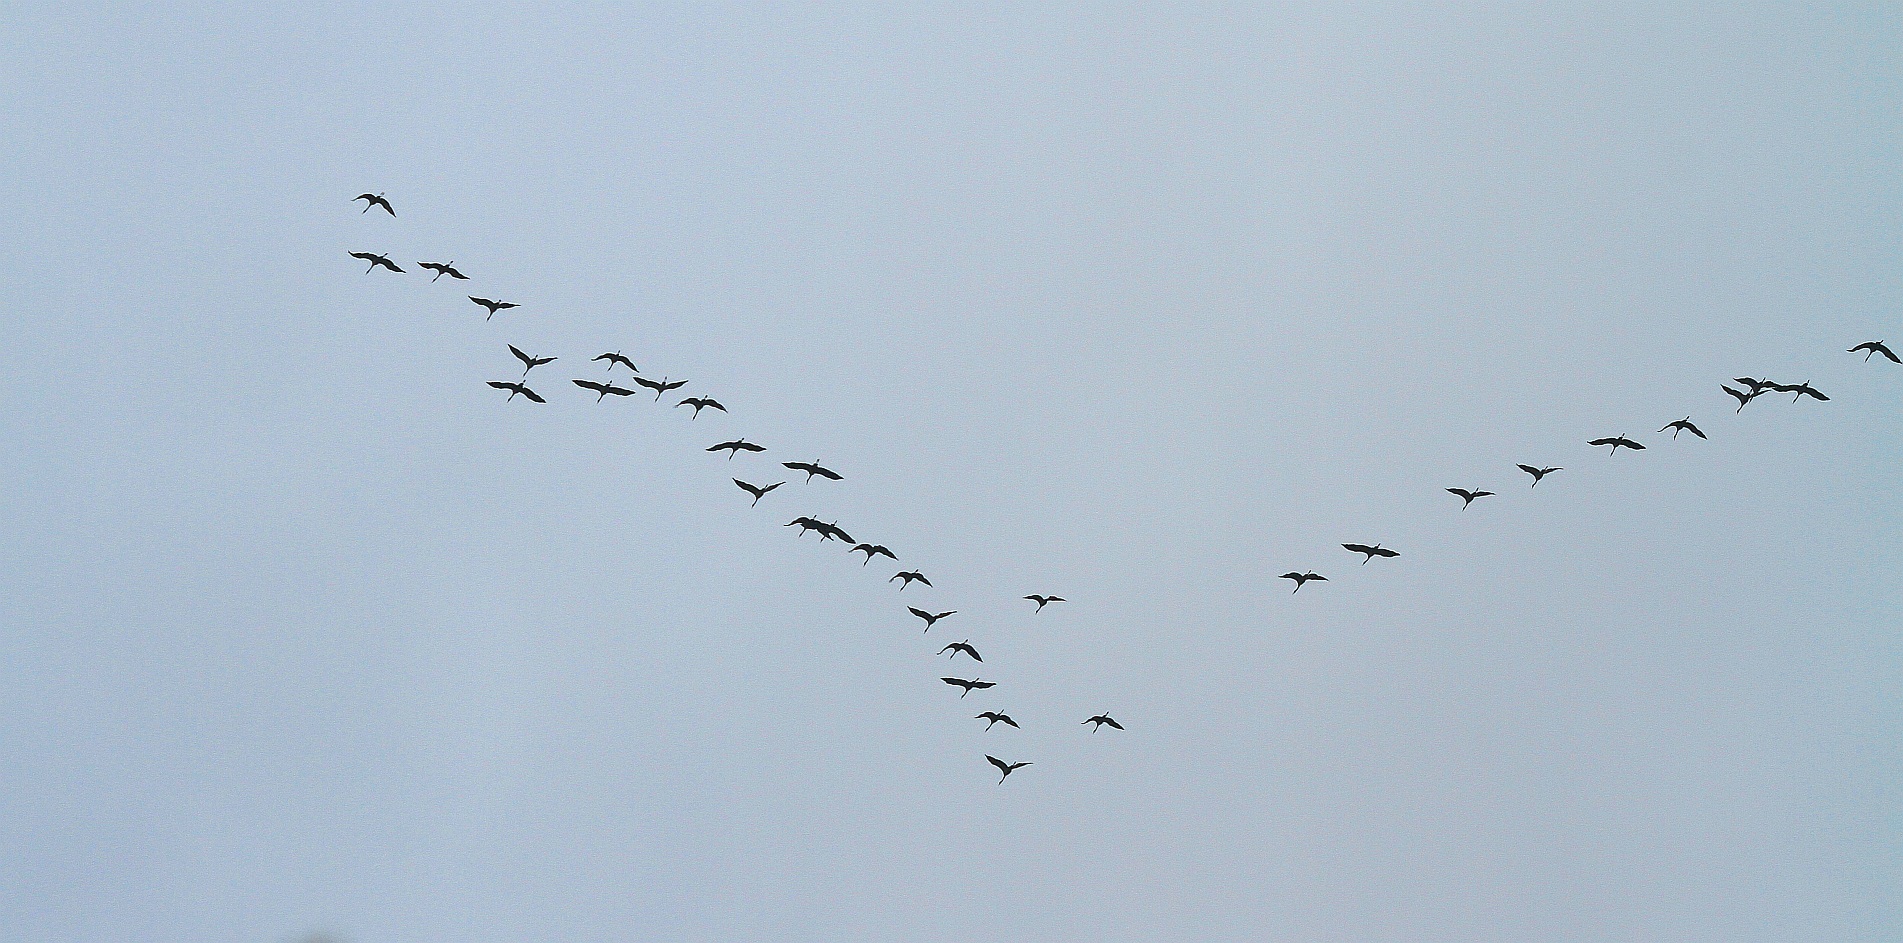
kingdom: Animalia
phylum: Chordata
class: Aves
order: Gruiformes
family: Gruidae
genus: Grus
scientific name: Grus grus
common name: Common crane
